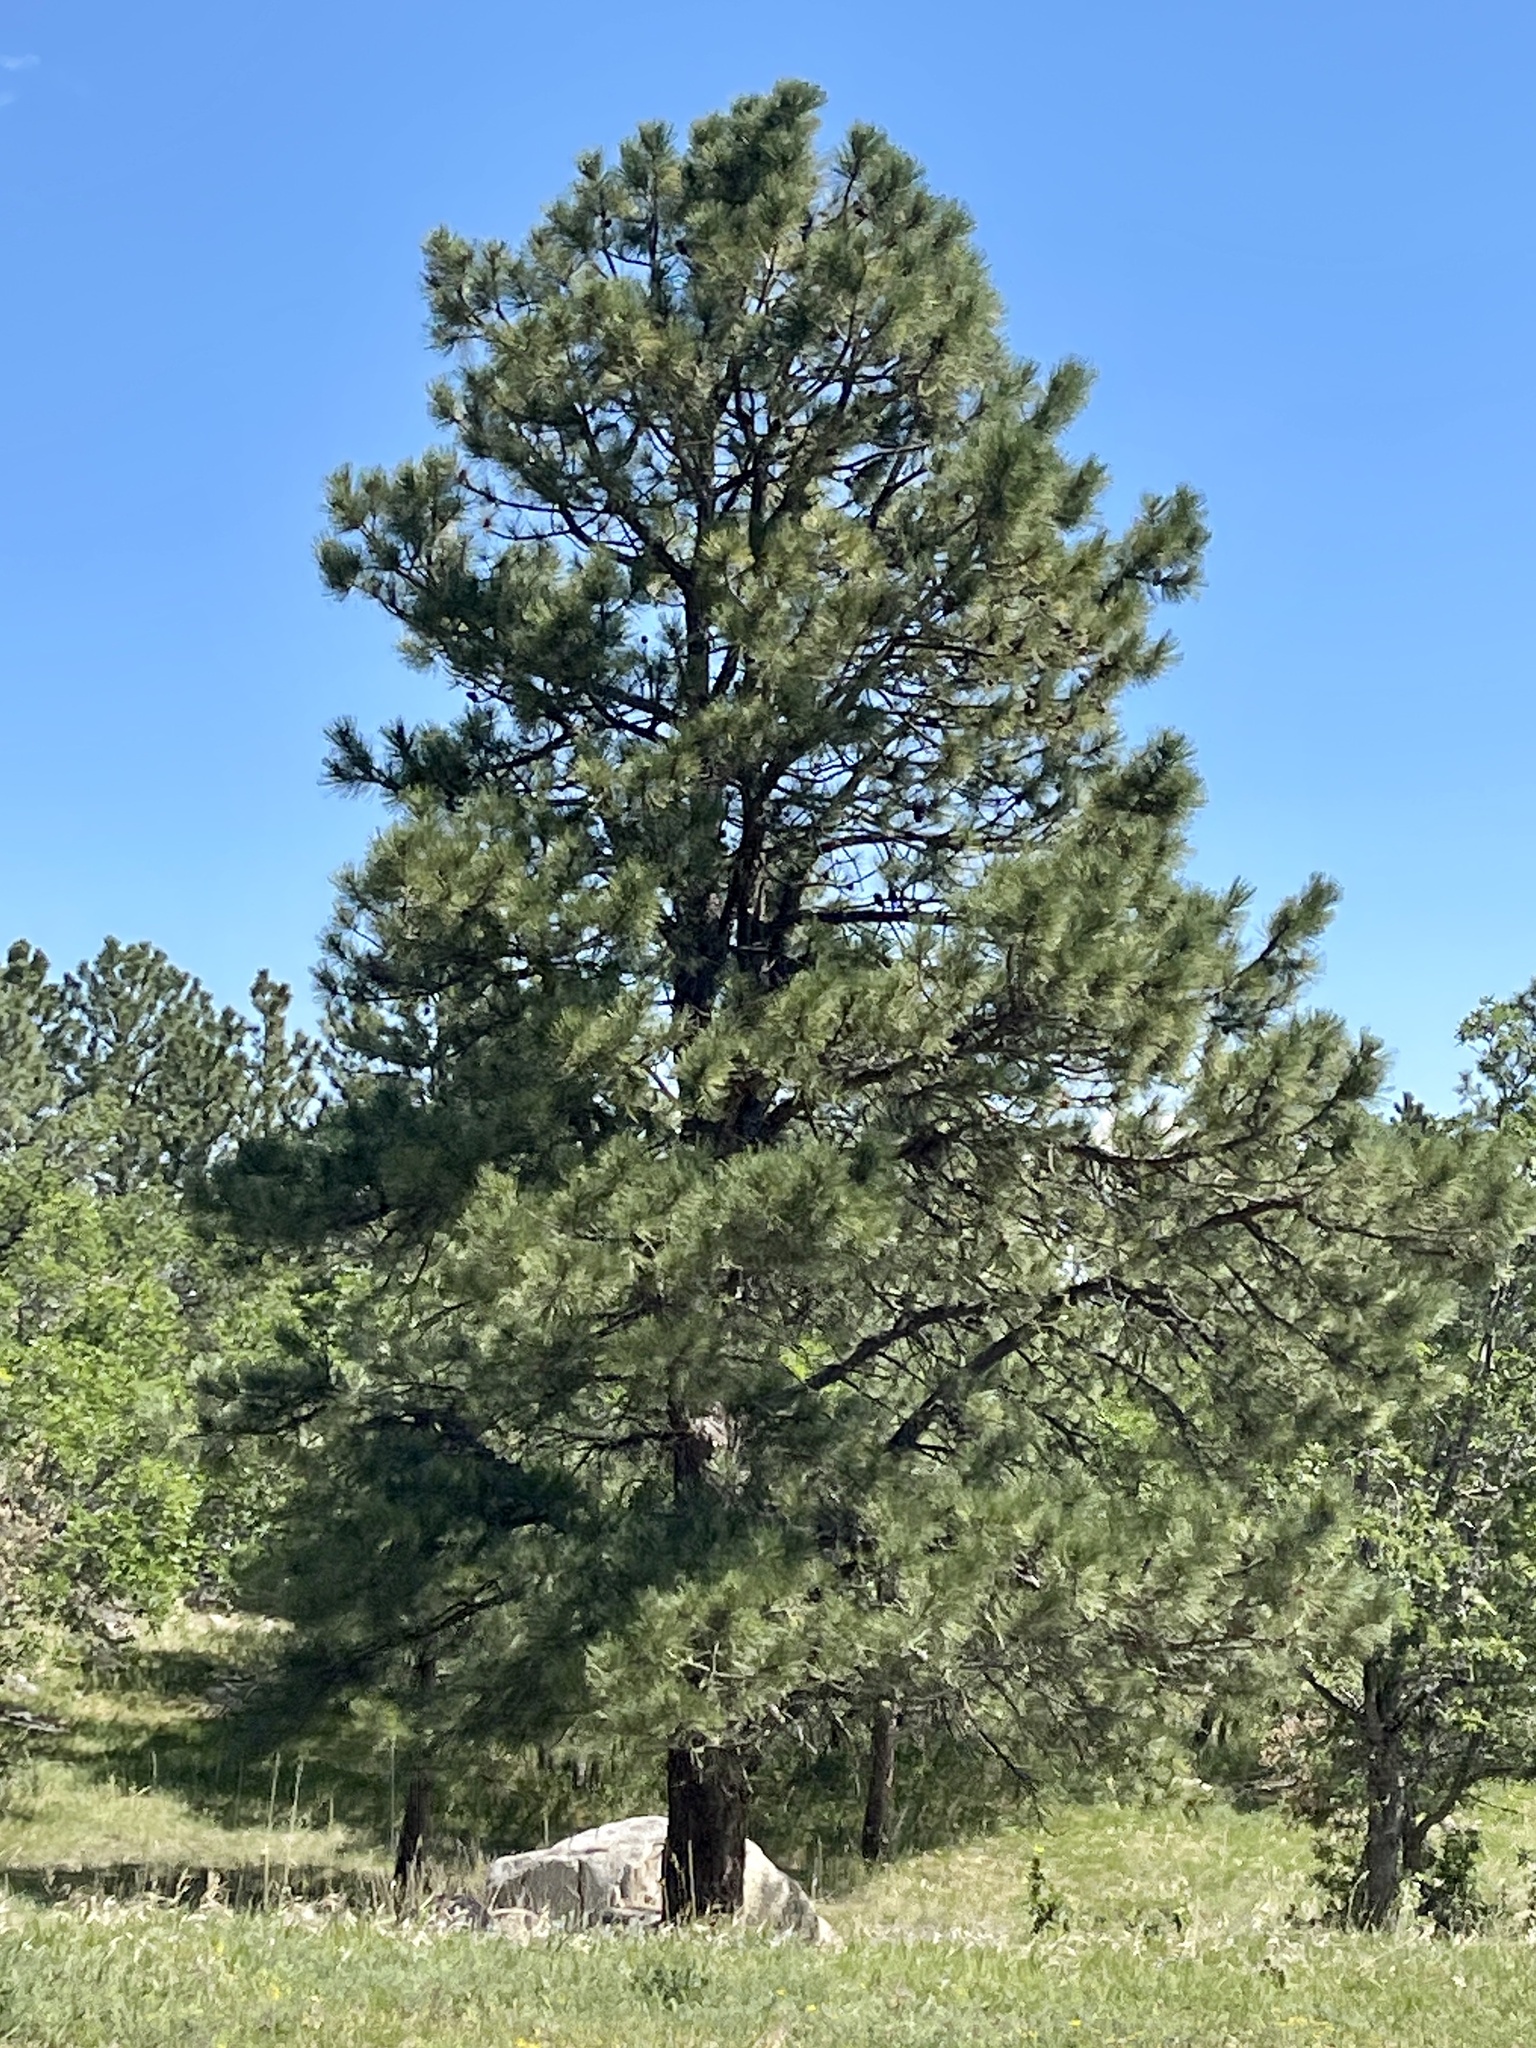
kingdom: Plantae
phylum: Tracheophyta
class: Pinopsida
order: Pinales
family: Pinaceae
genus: Pinus
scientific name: Pinus ponderosa
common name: Western yellow-pine
